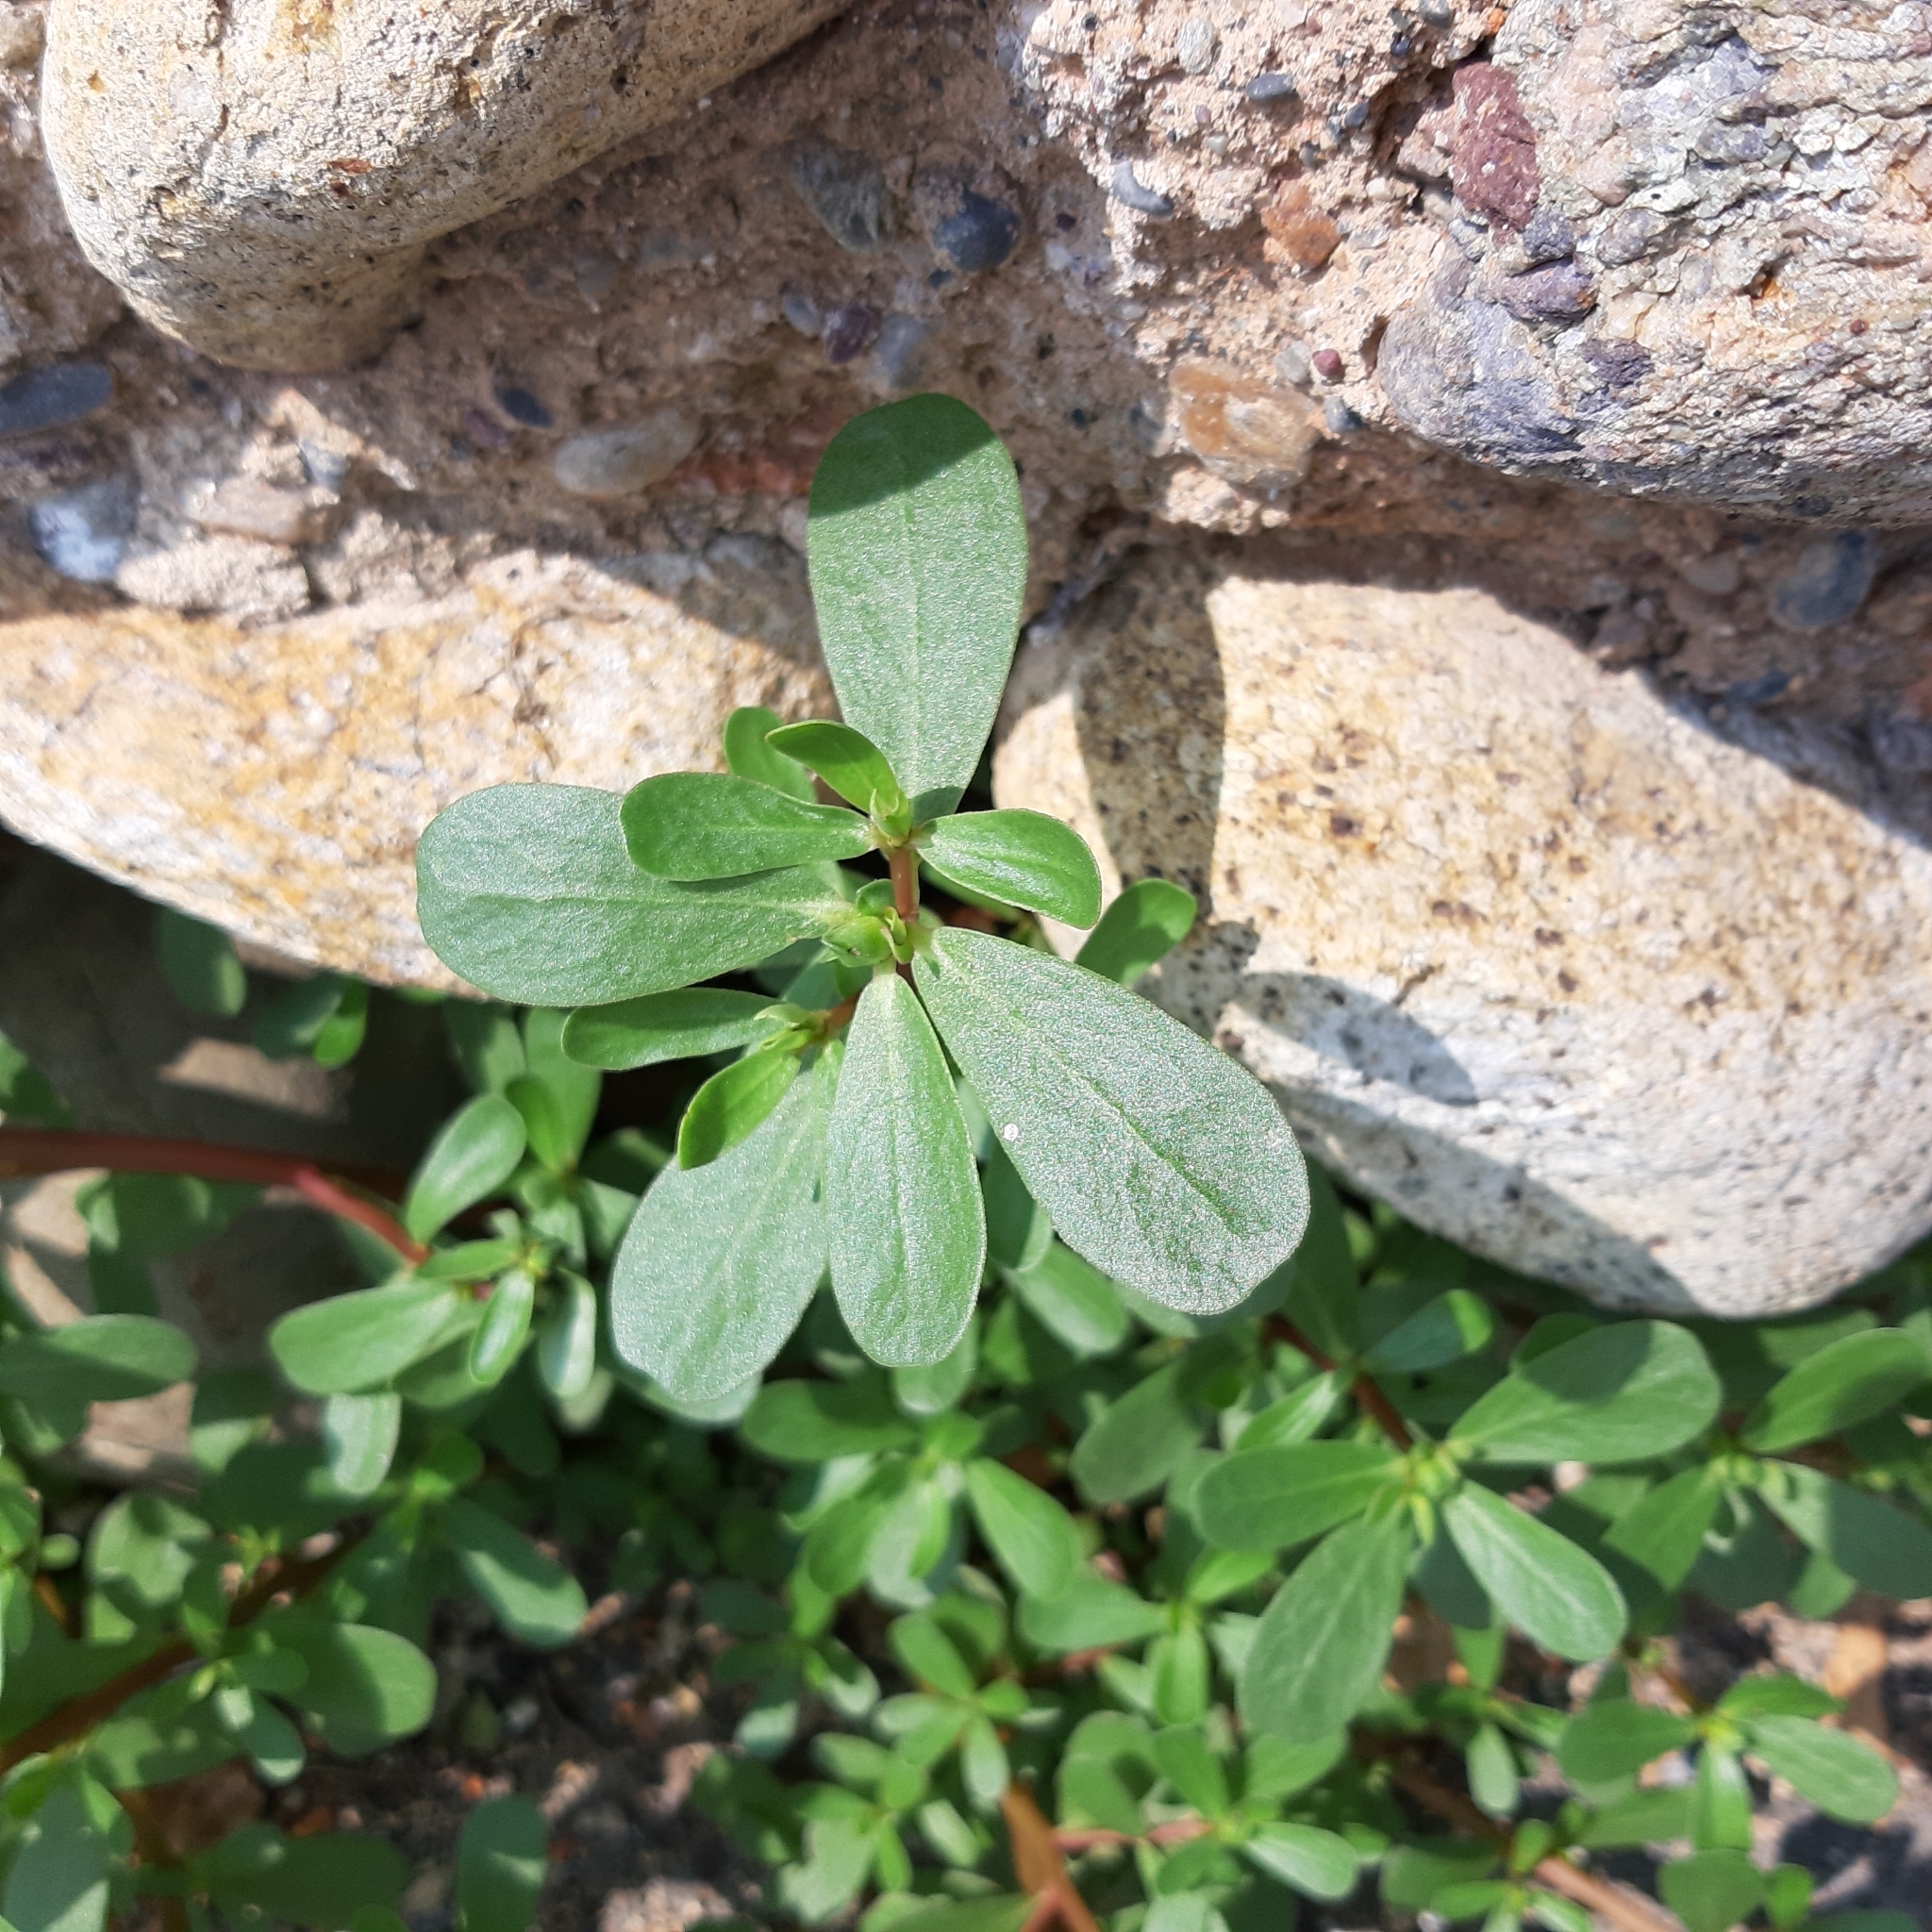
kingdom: Plantae
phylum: Tracheophyta
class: Magnoliopsida
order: Caryophyllales
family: Portulacaceae
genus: Portulaca
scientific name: Portulaca oleracea
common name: Common purslane
